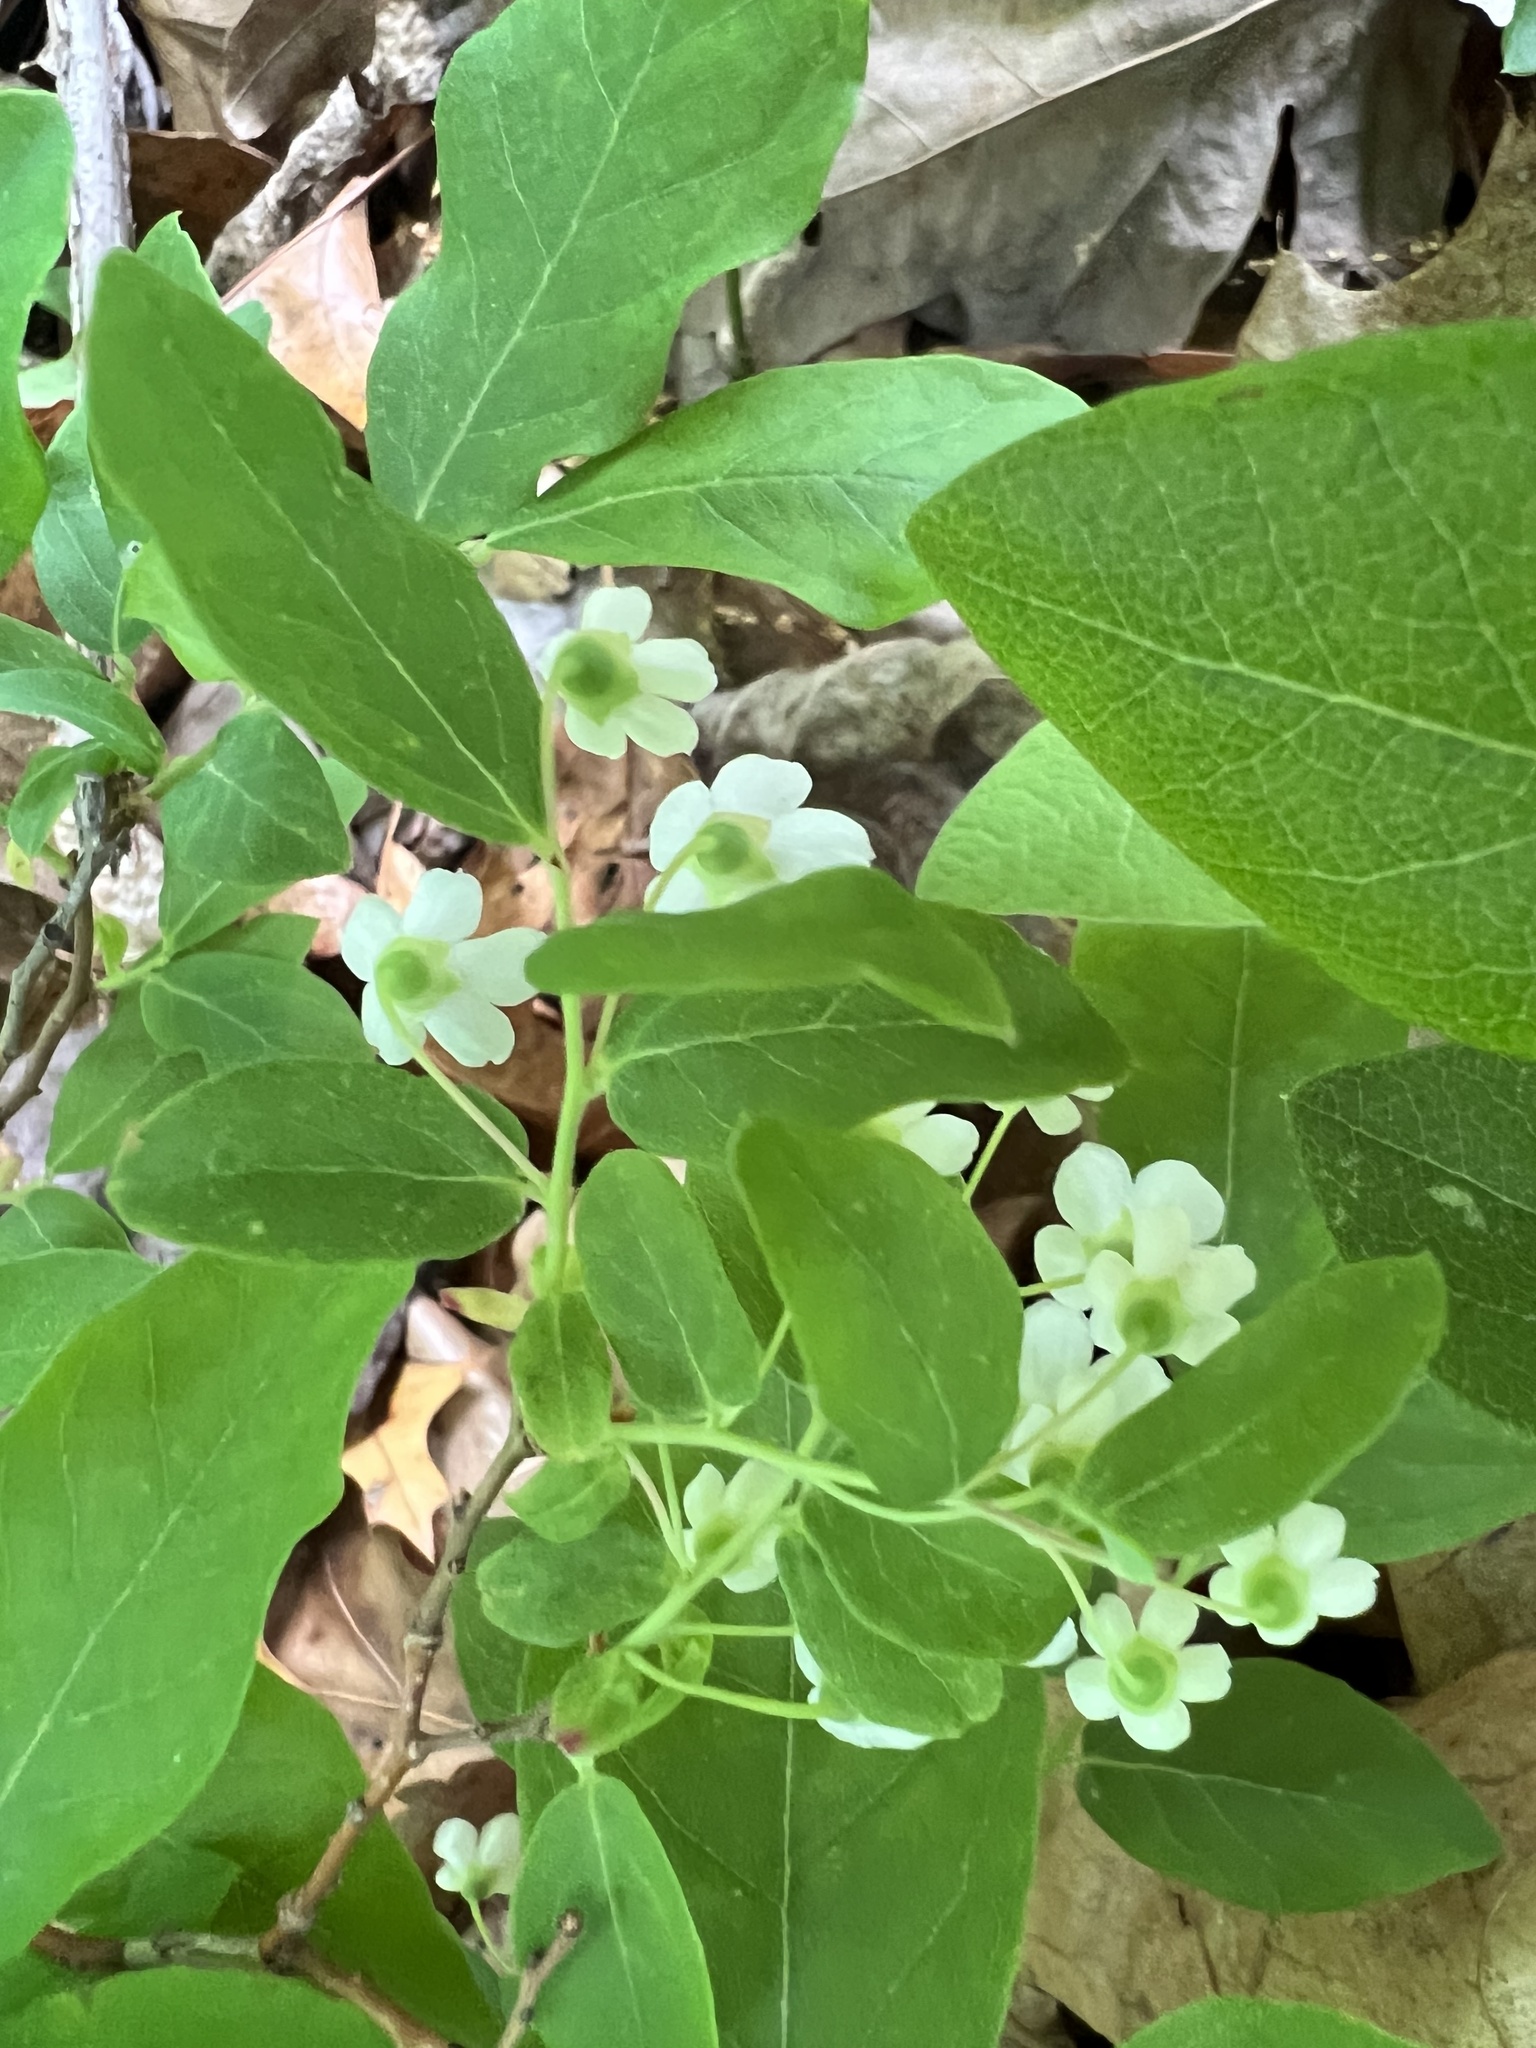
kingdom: Plantae
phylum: Tracheophyta
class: Magnoliopsida
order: Ericales
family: Ericaceae
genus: Vaccinium
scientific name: Vaccinium stamineum
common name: Deerberry
